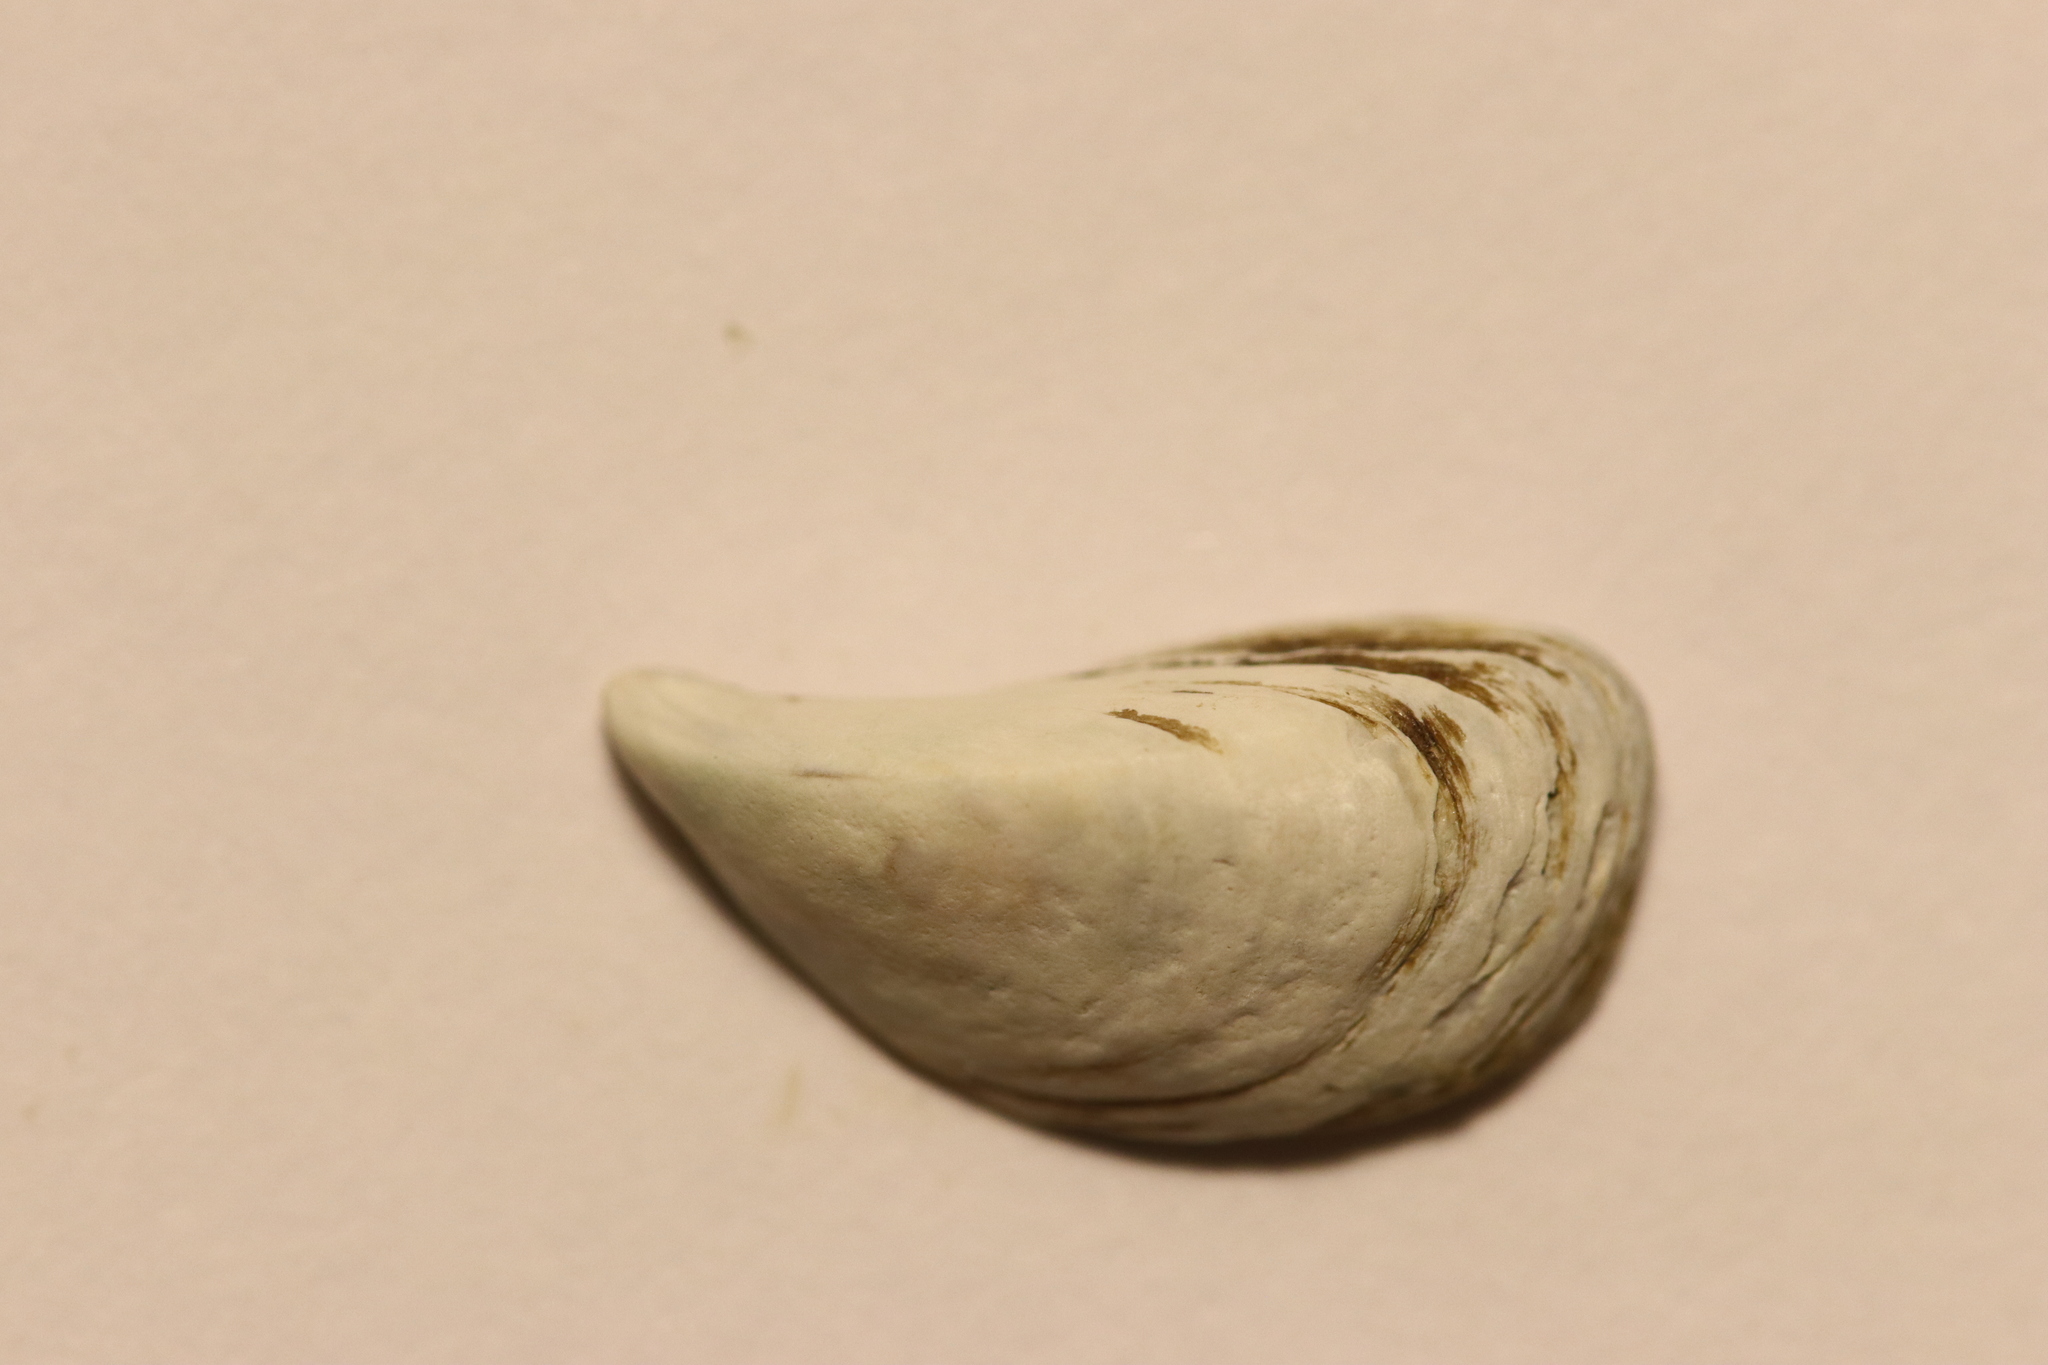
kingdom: Animalia
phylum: Mollusca
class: Bivalvia
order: Myida
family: Dreissenidae
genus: Dreissena
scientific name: Dreissena polymorpha
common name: Zebra mussel
